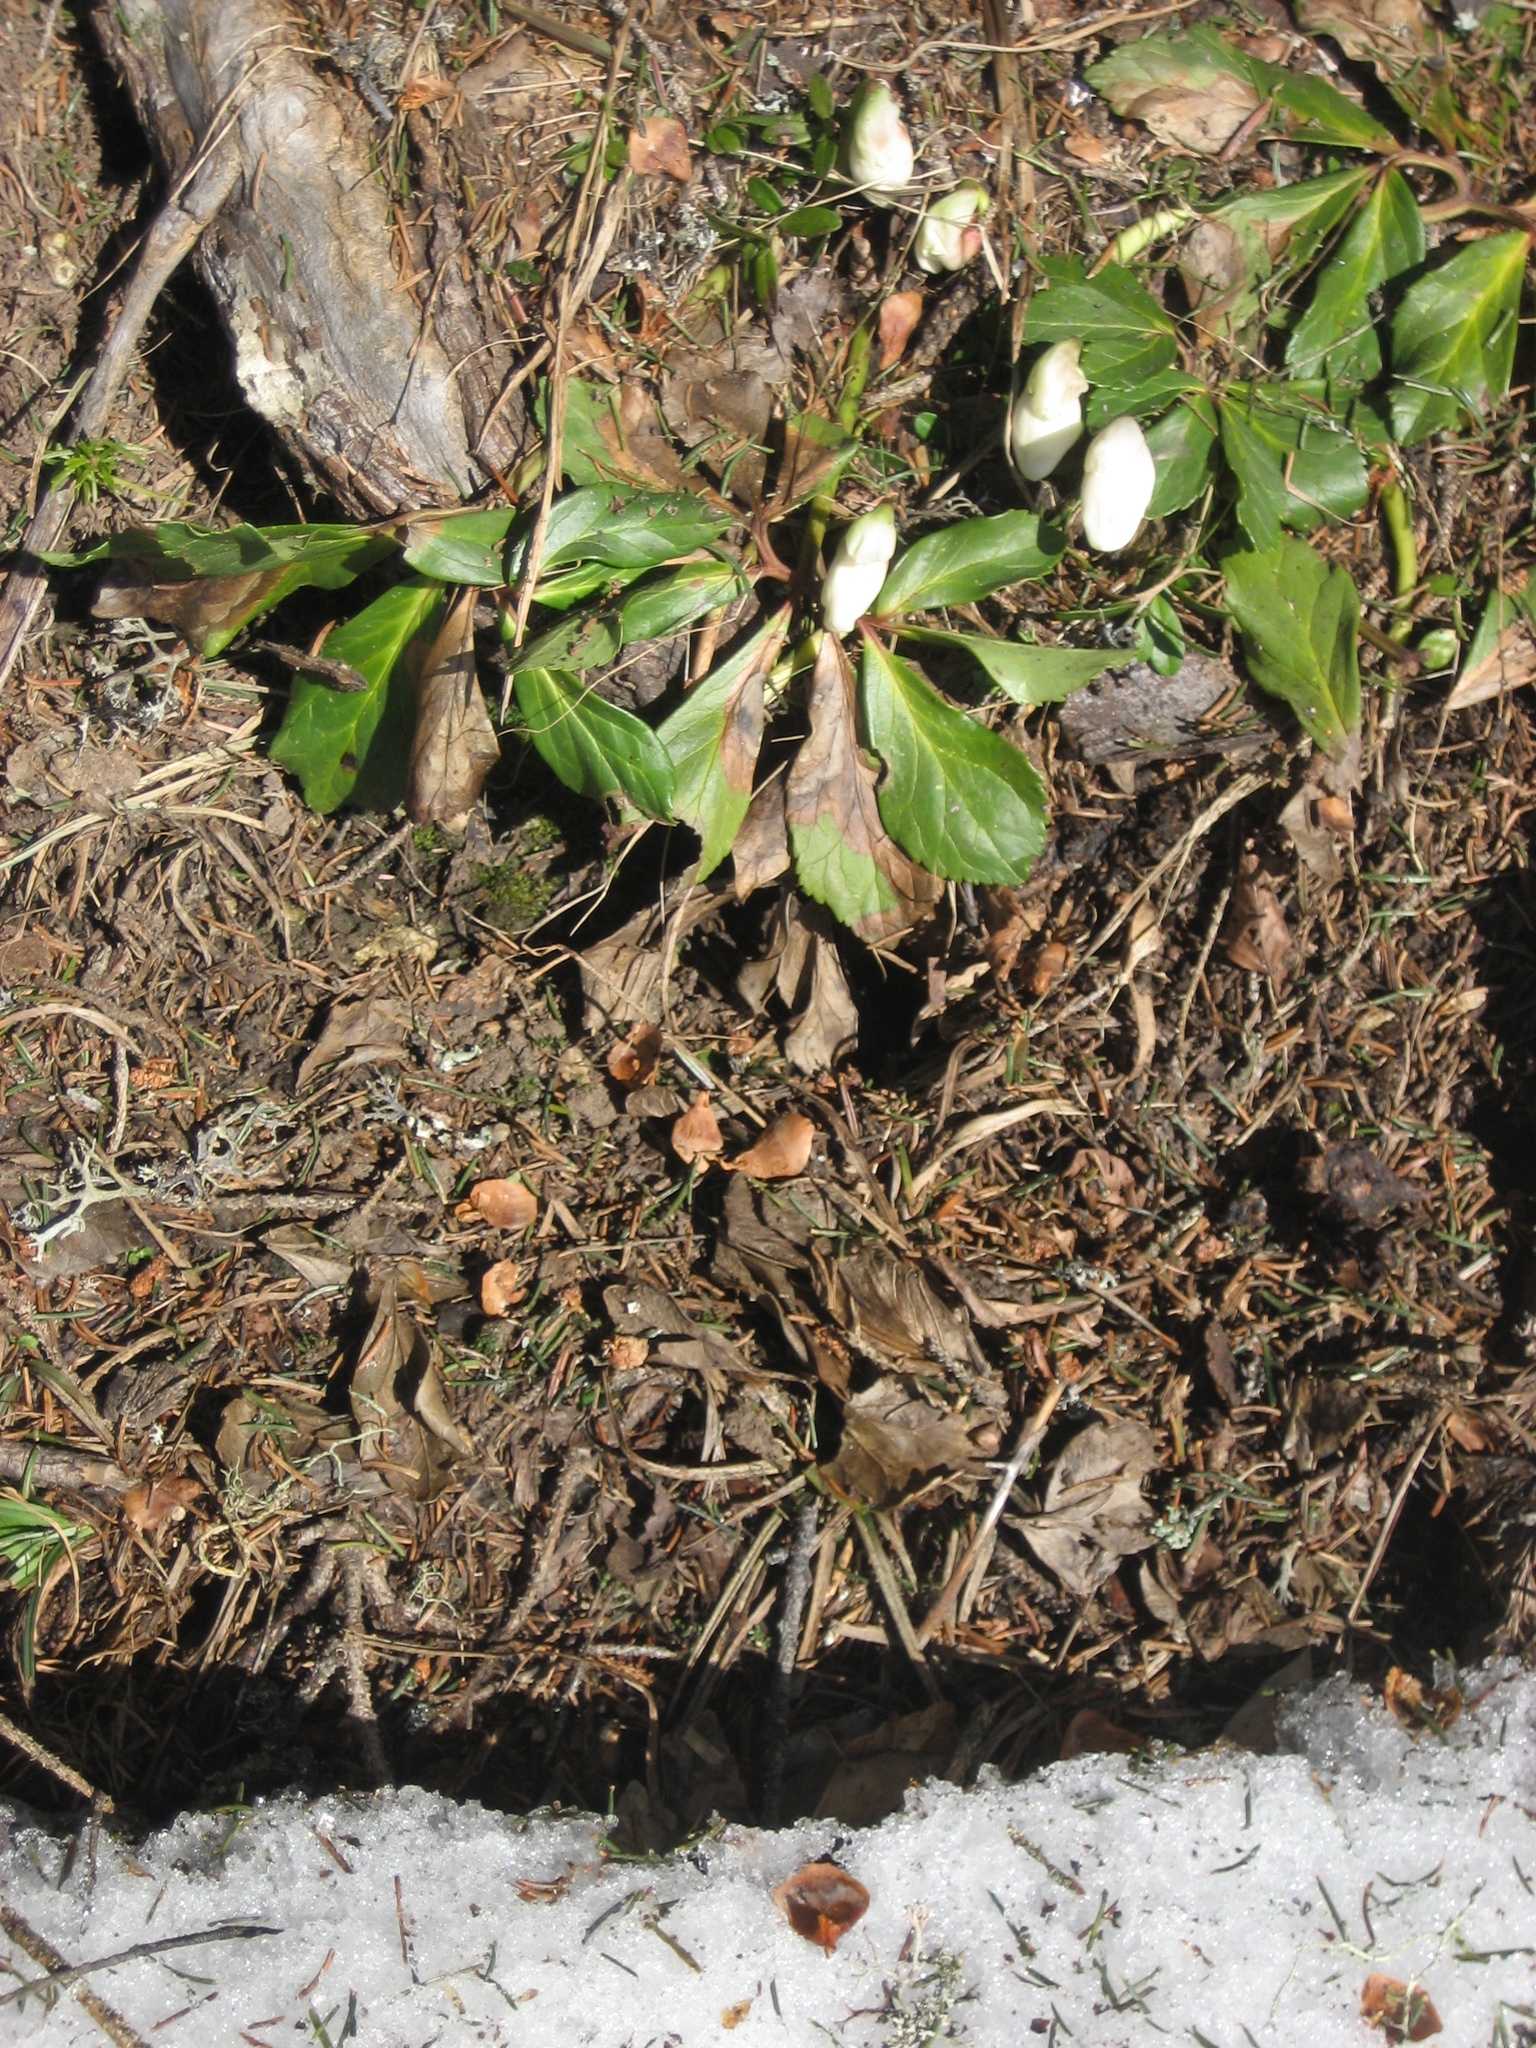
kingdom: Plantae
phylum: Tracheophyta
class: Magnoliopsida
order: Ranunculales
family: Ranunculaceae
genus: Helleborus
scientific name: Helleborus niger
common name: Black hellebore
